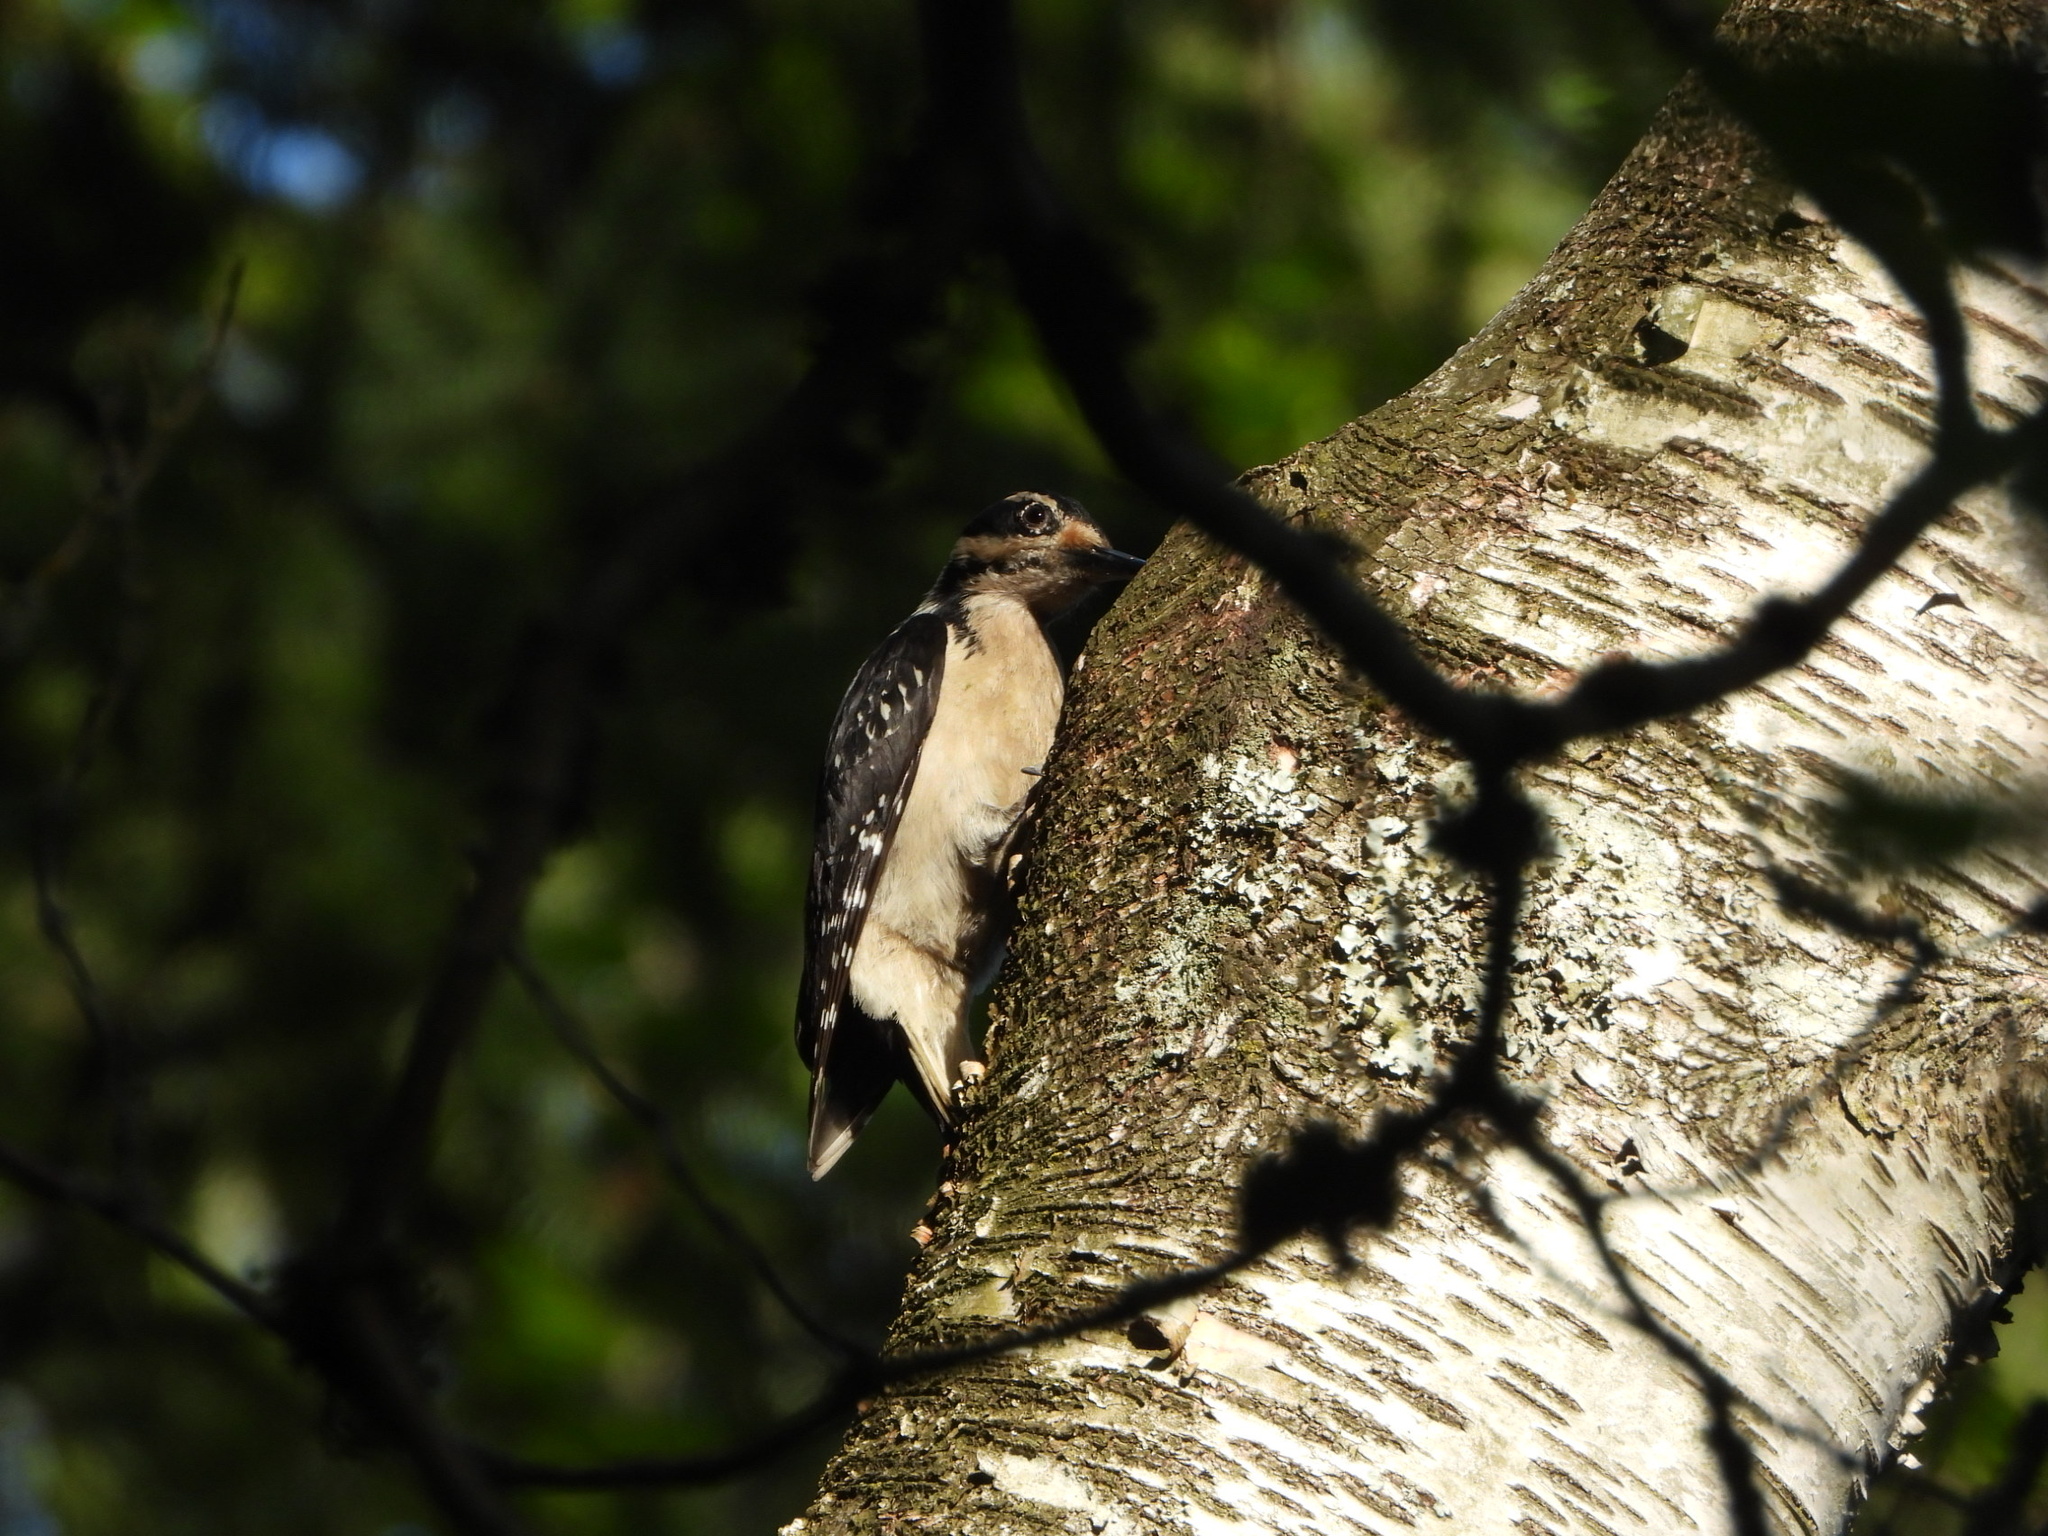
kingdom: Animalia
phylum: Chordata
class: Aves
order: Piciformes
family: Picidae
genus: Leuconotopicus
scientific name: Leuconotopicus villosus
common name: Hairy woodpecker
